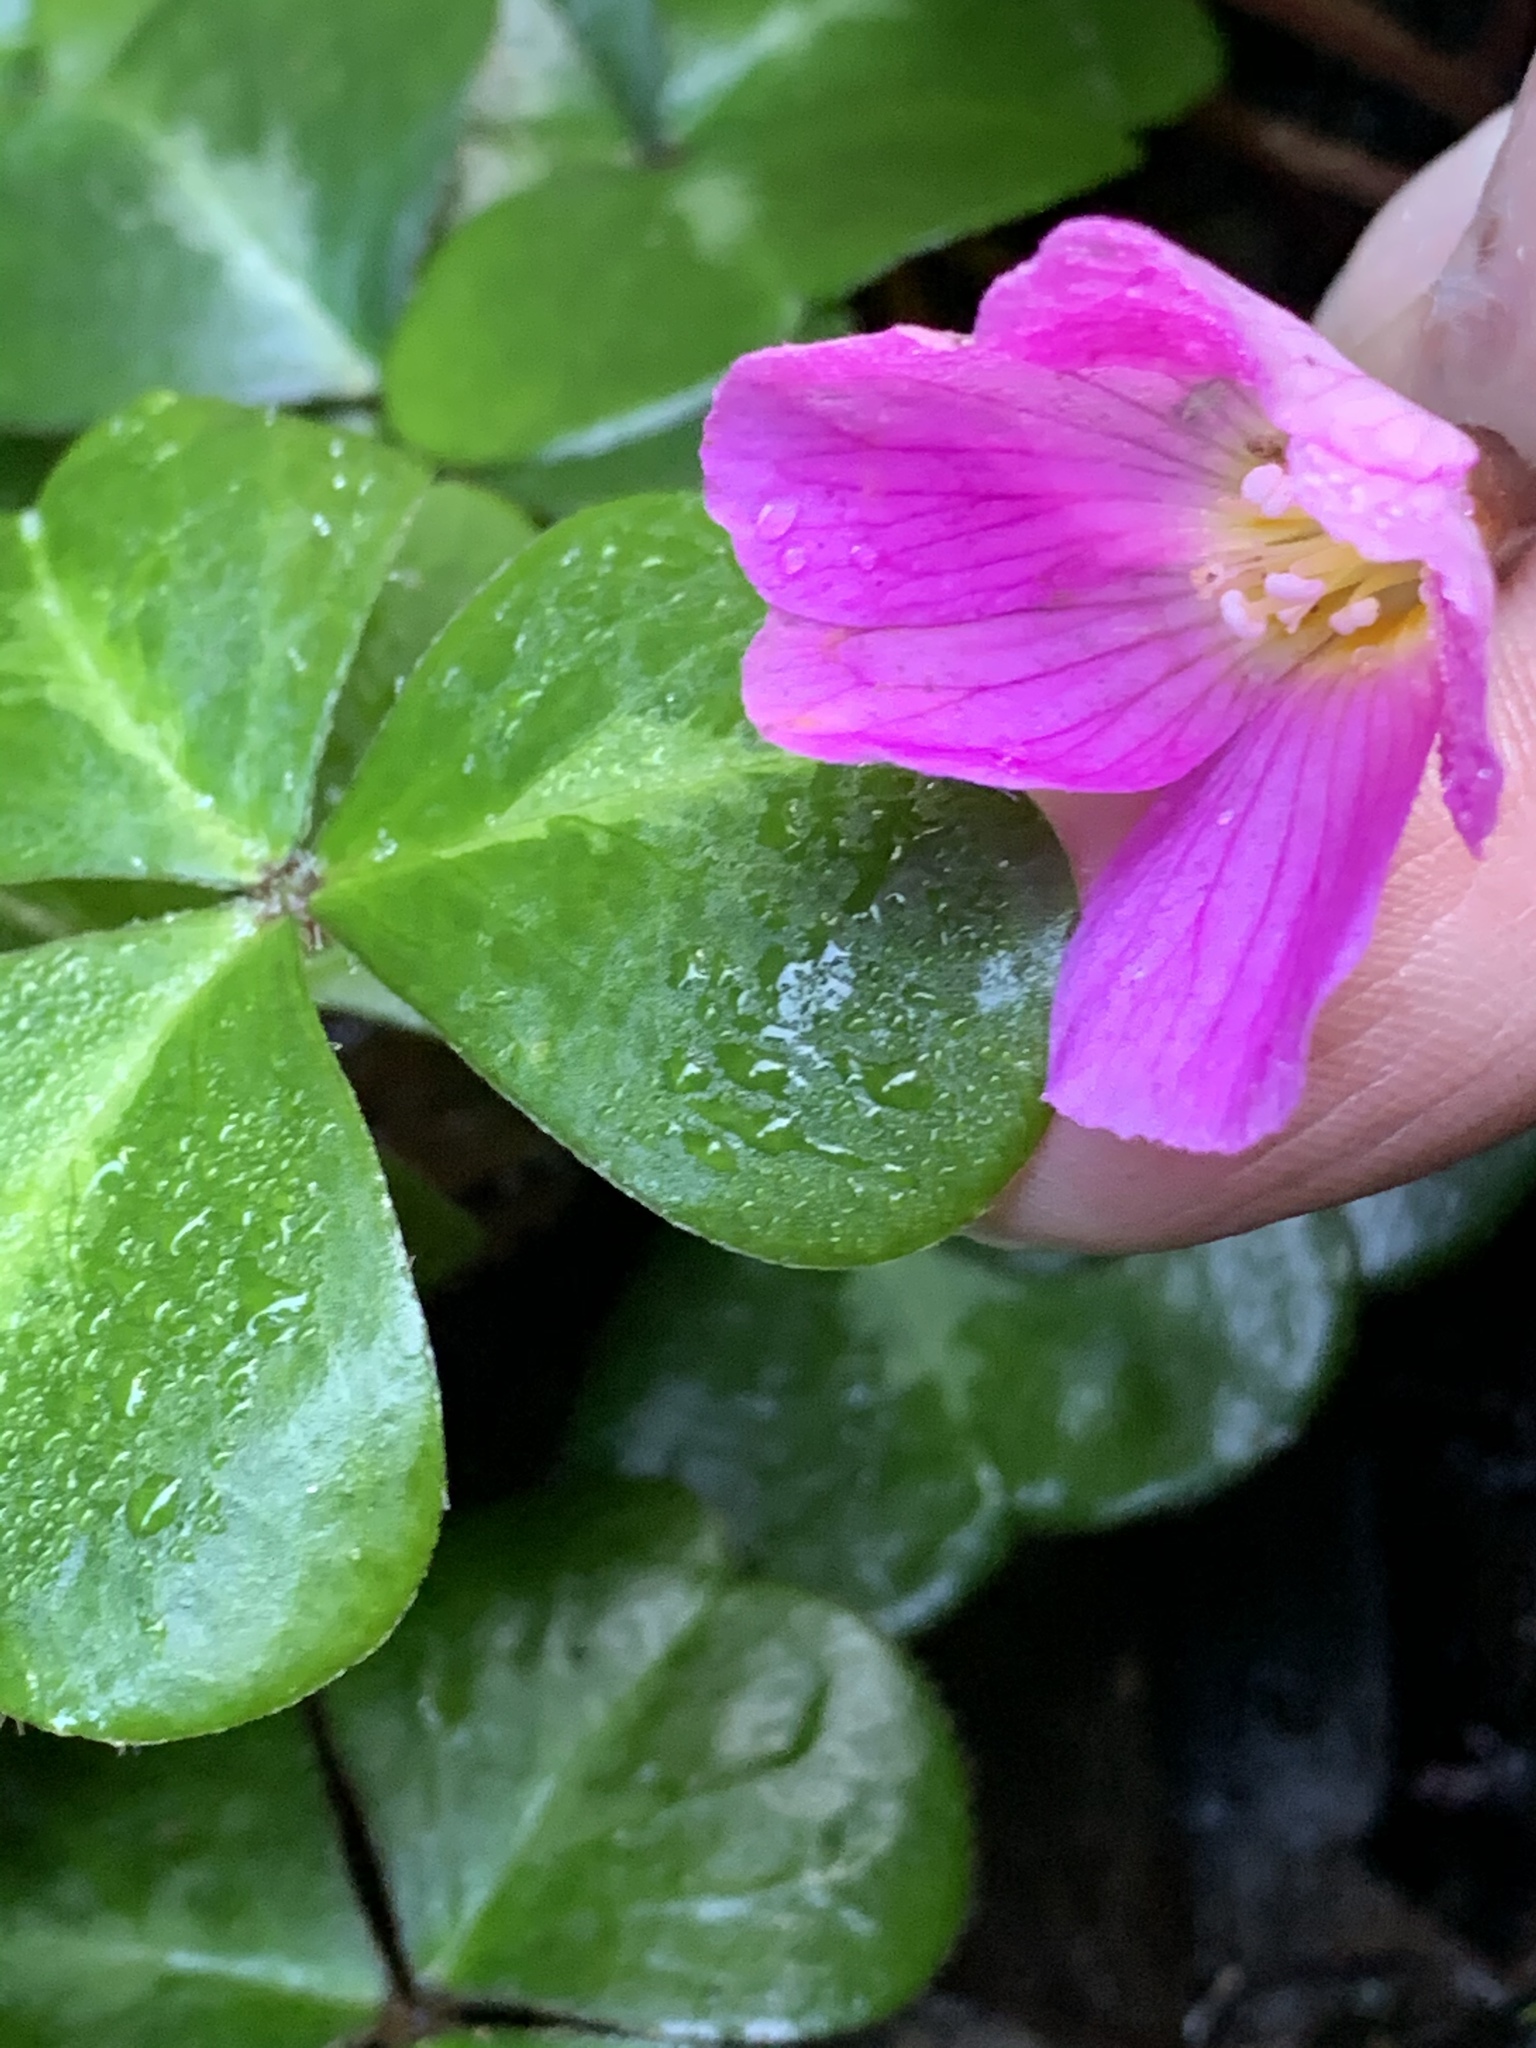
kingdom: Plantae
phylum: Tracheophyta
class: Magnoliopsida
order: Oxalidales
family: Oxalidaceae
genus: Oxalis
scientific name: Oxalis oregana
